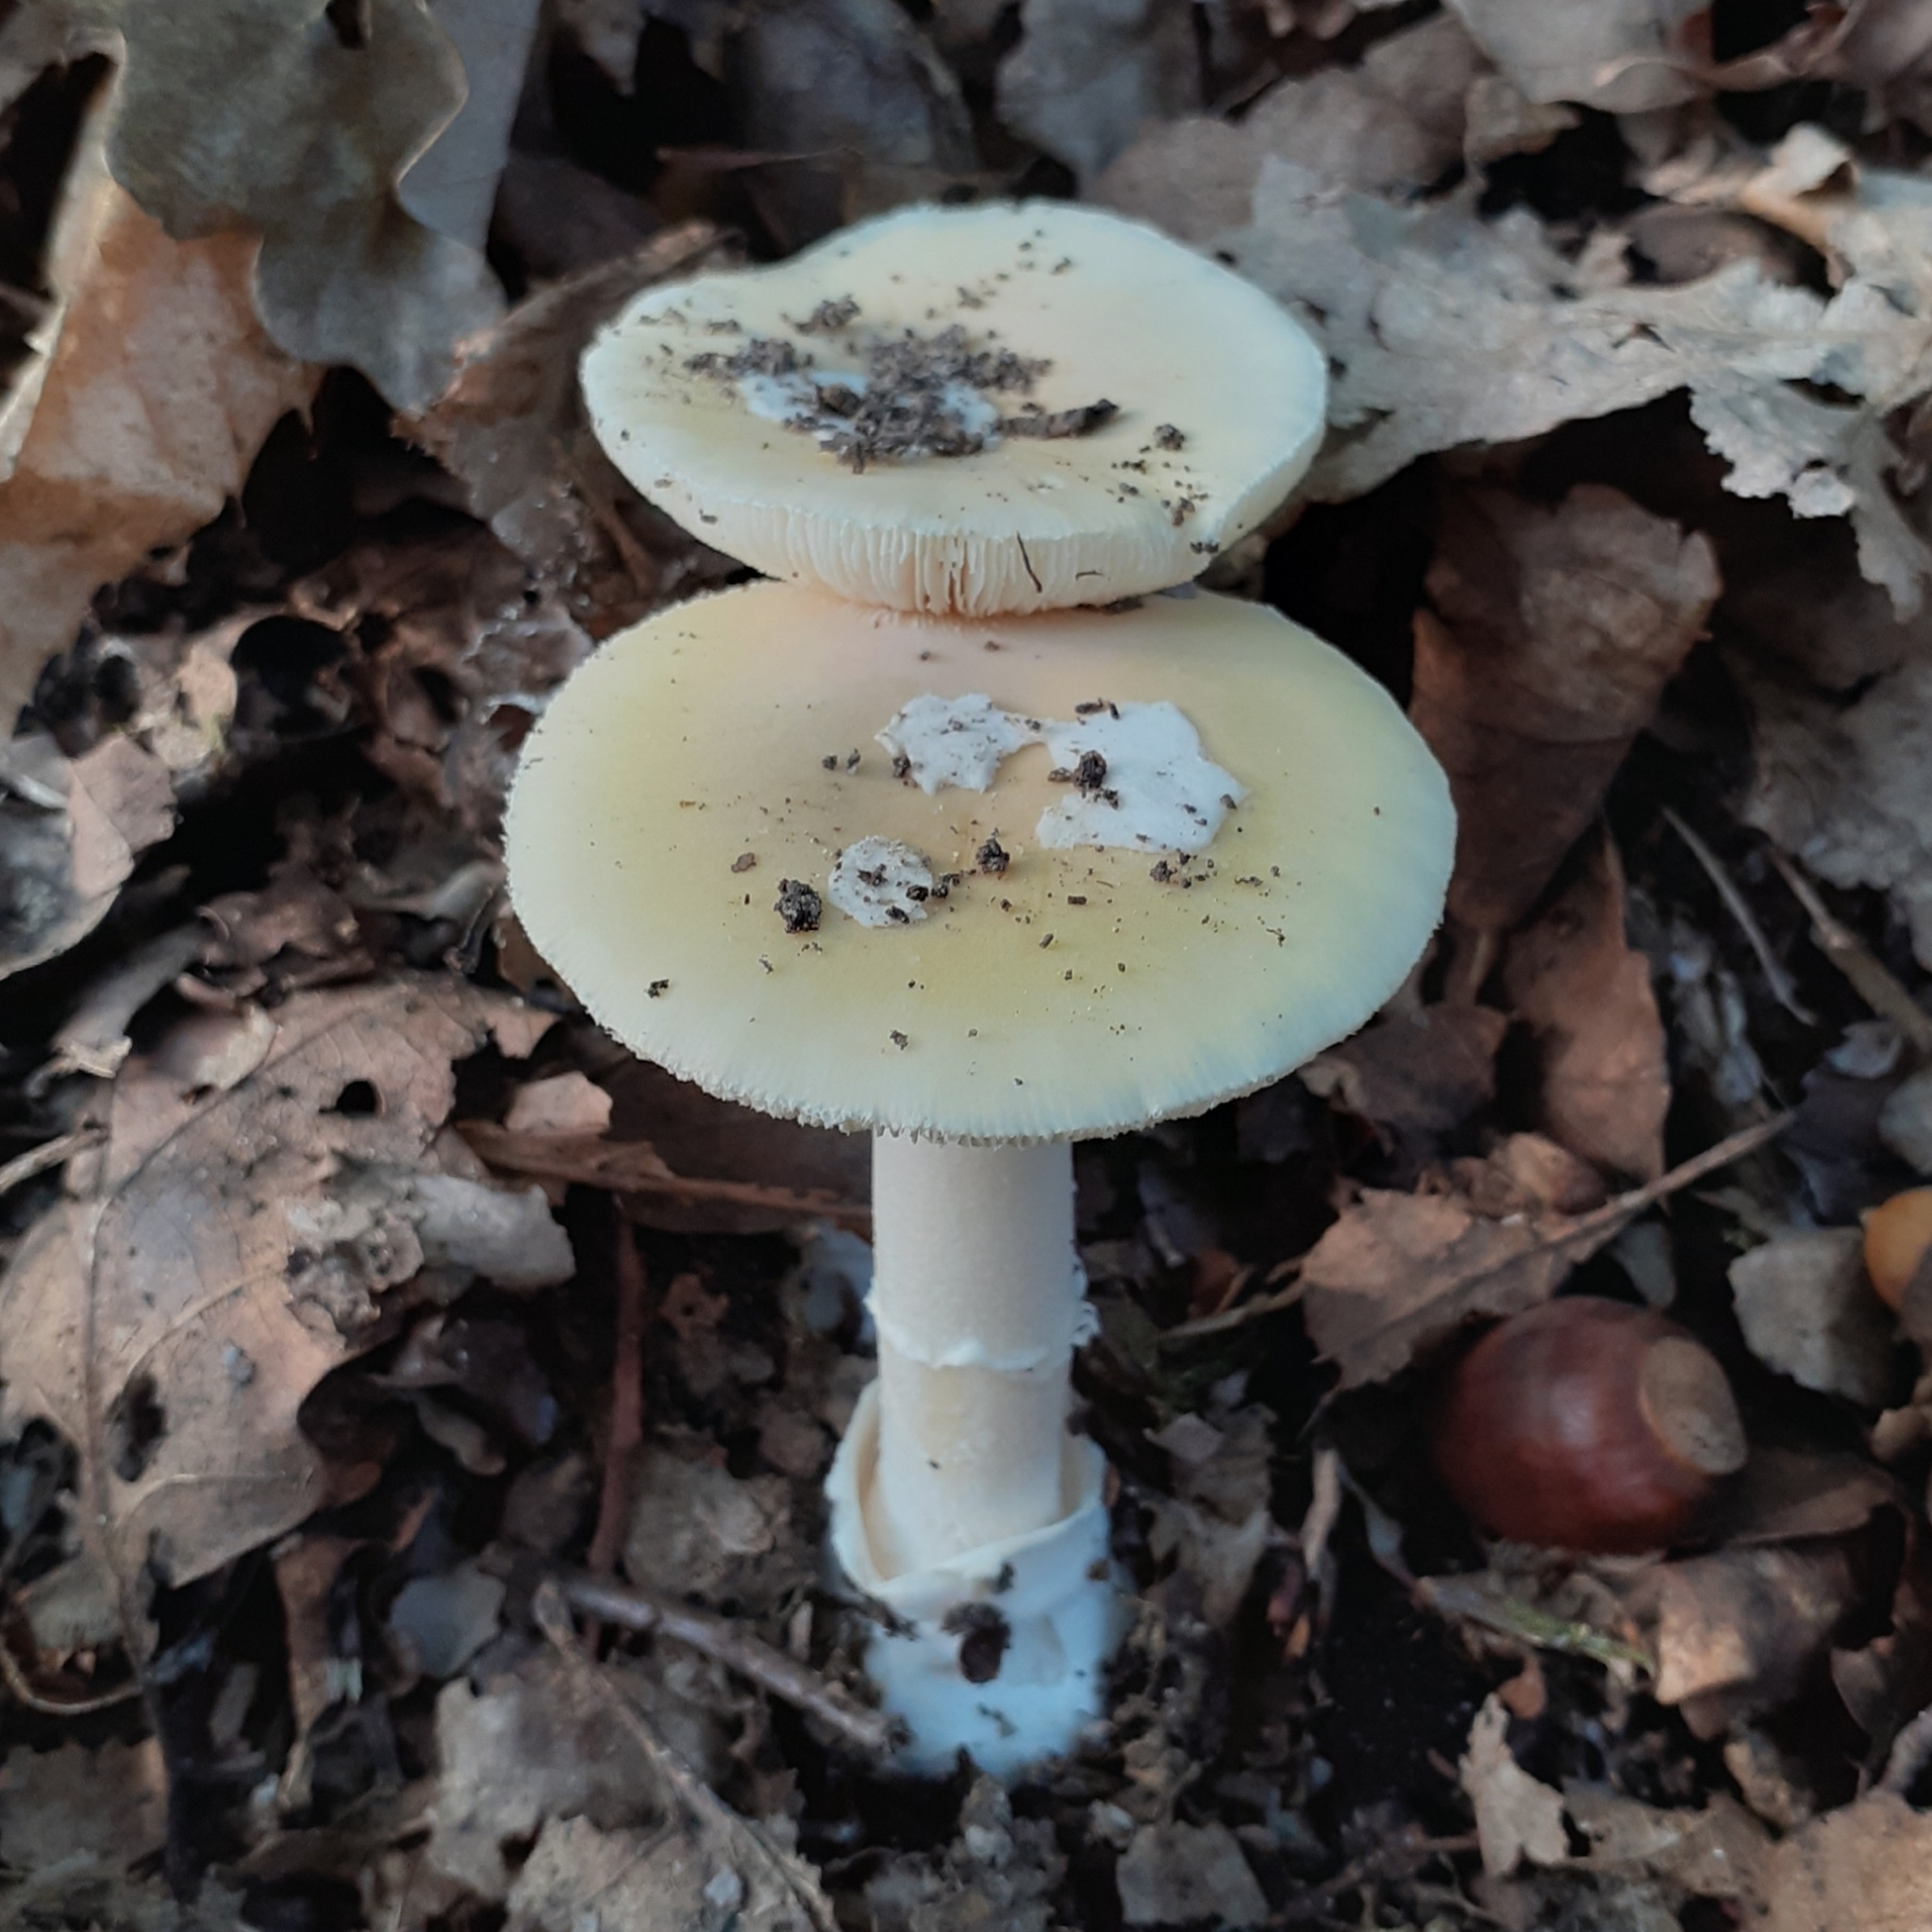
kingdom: Fungi
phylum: Basidiomycota
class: Agaricomycetes
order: Agaricales
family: Amanitaceae
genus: Amanita
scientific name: Amanita gemmata
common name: Jewelled amanita
